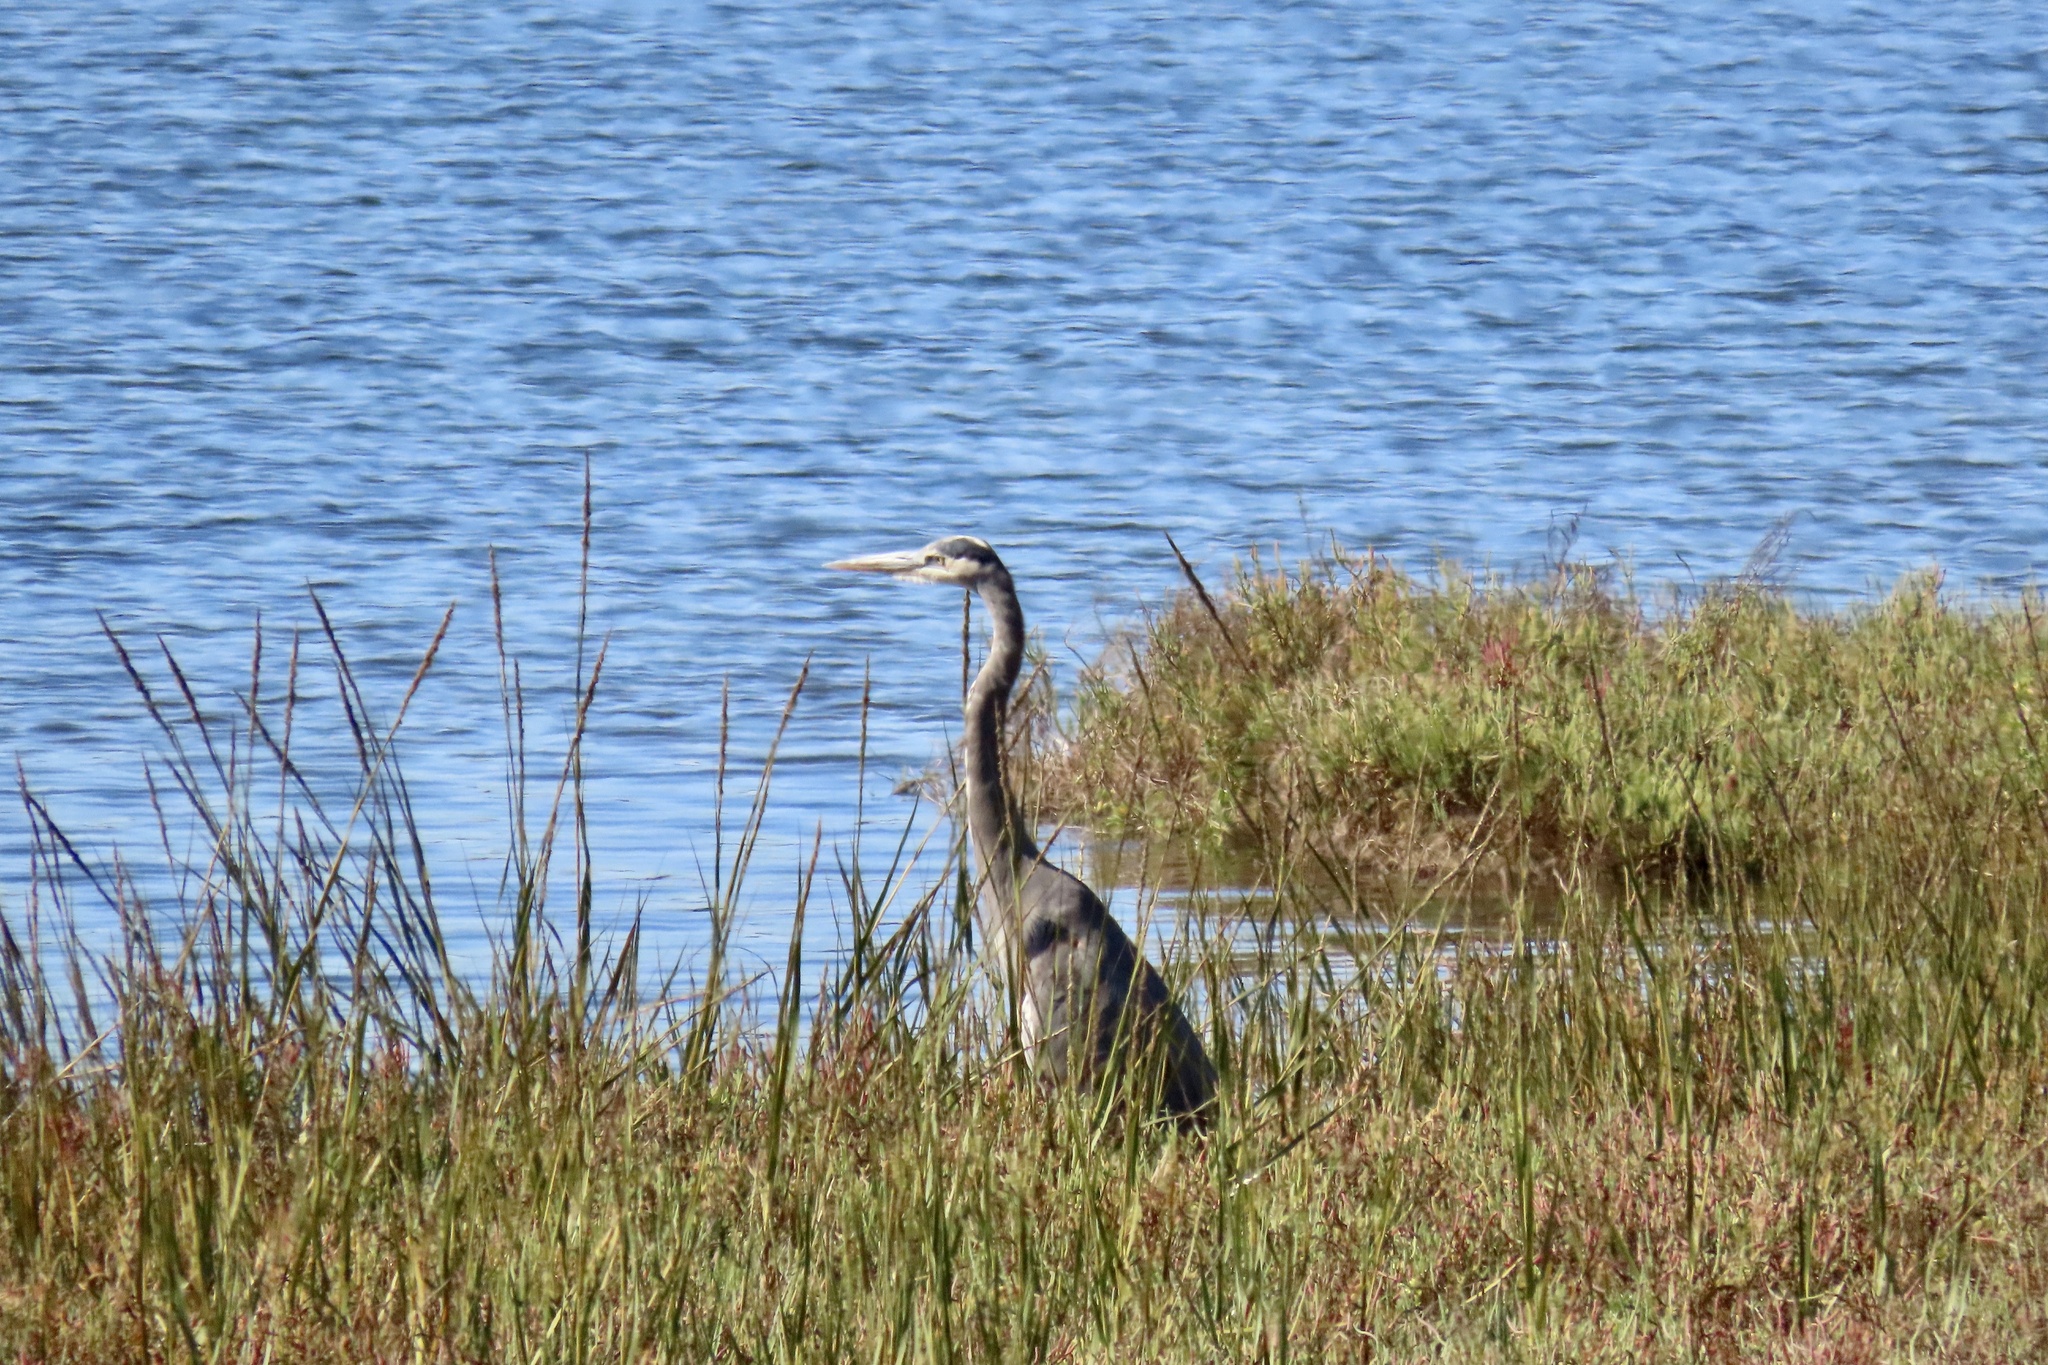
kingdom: Animalia
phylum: Chordata
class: Aves
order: Pelecaniformes
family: Ardeidae
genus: Ardea
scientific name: Ardea herodias
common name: Great blue heron
